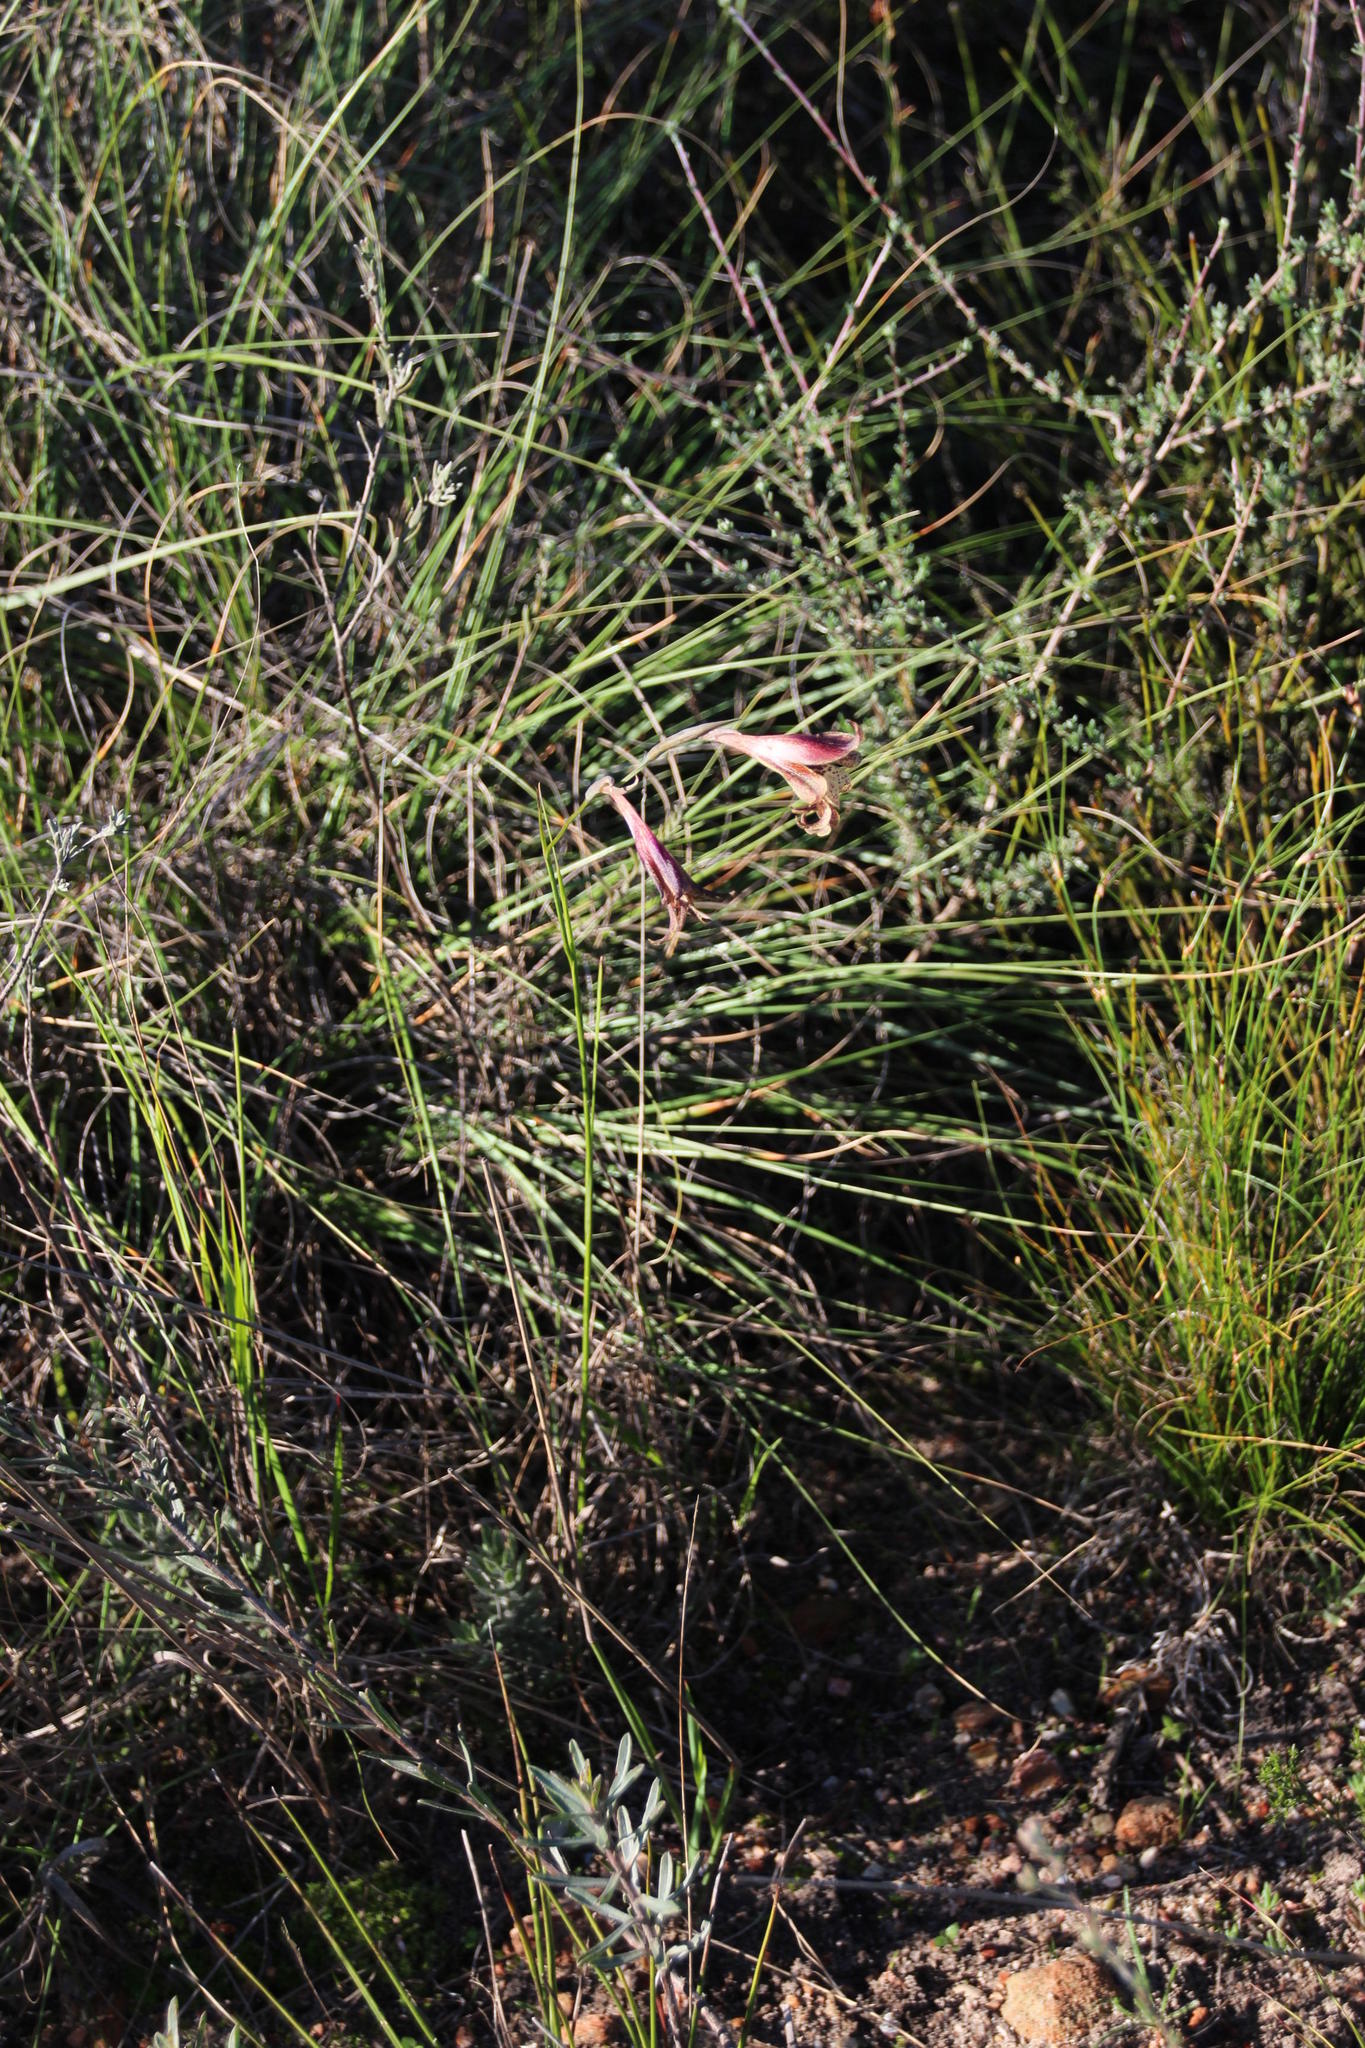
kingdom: Plantae
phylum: Tracheophyta
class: Liliopsida
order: Asparagales
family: Iridaceae
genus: Gladiolus
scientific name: Gladiolus maculatus
